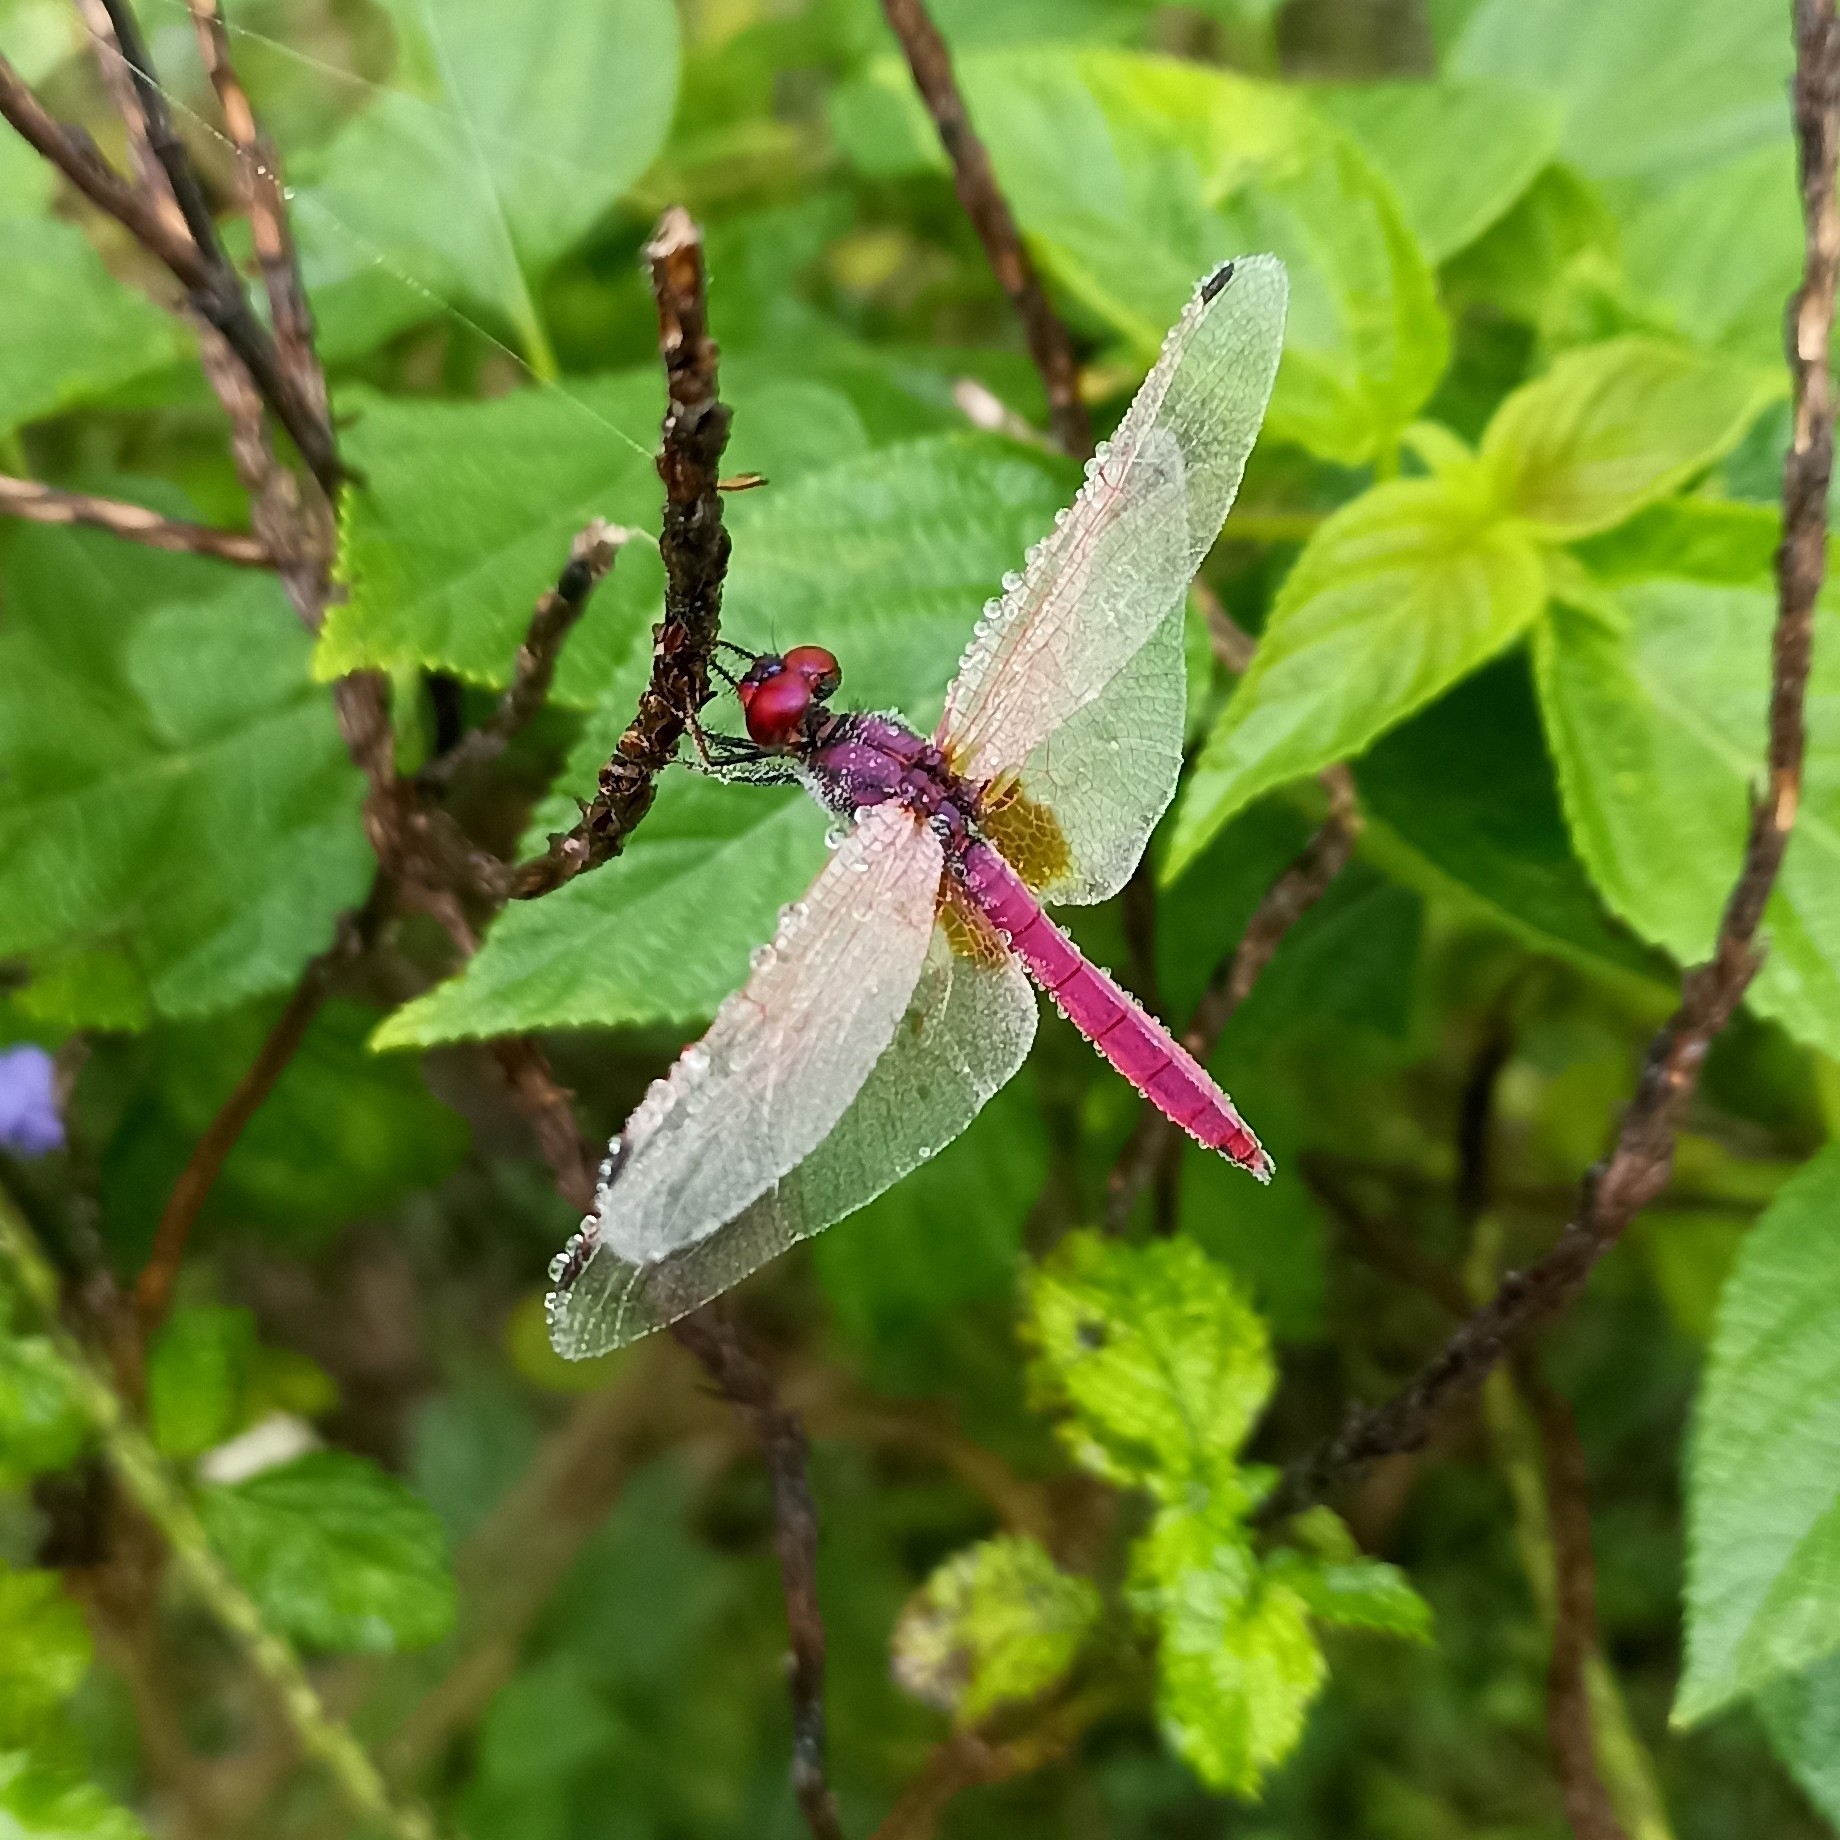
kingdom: Animalia
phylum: Arthropoda
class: Insecta
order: Odonata
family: Libellulidae
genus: Trithemis
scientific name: Trithemis aurora
